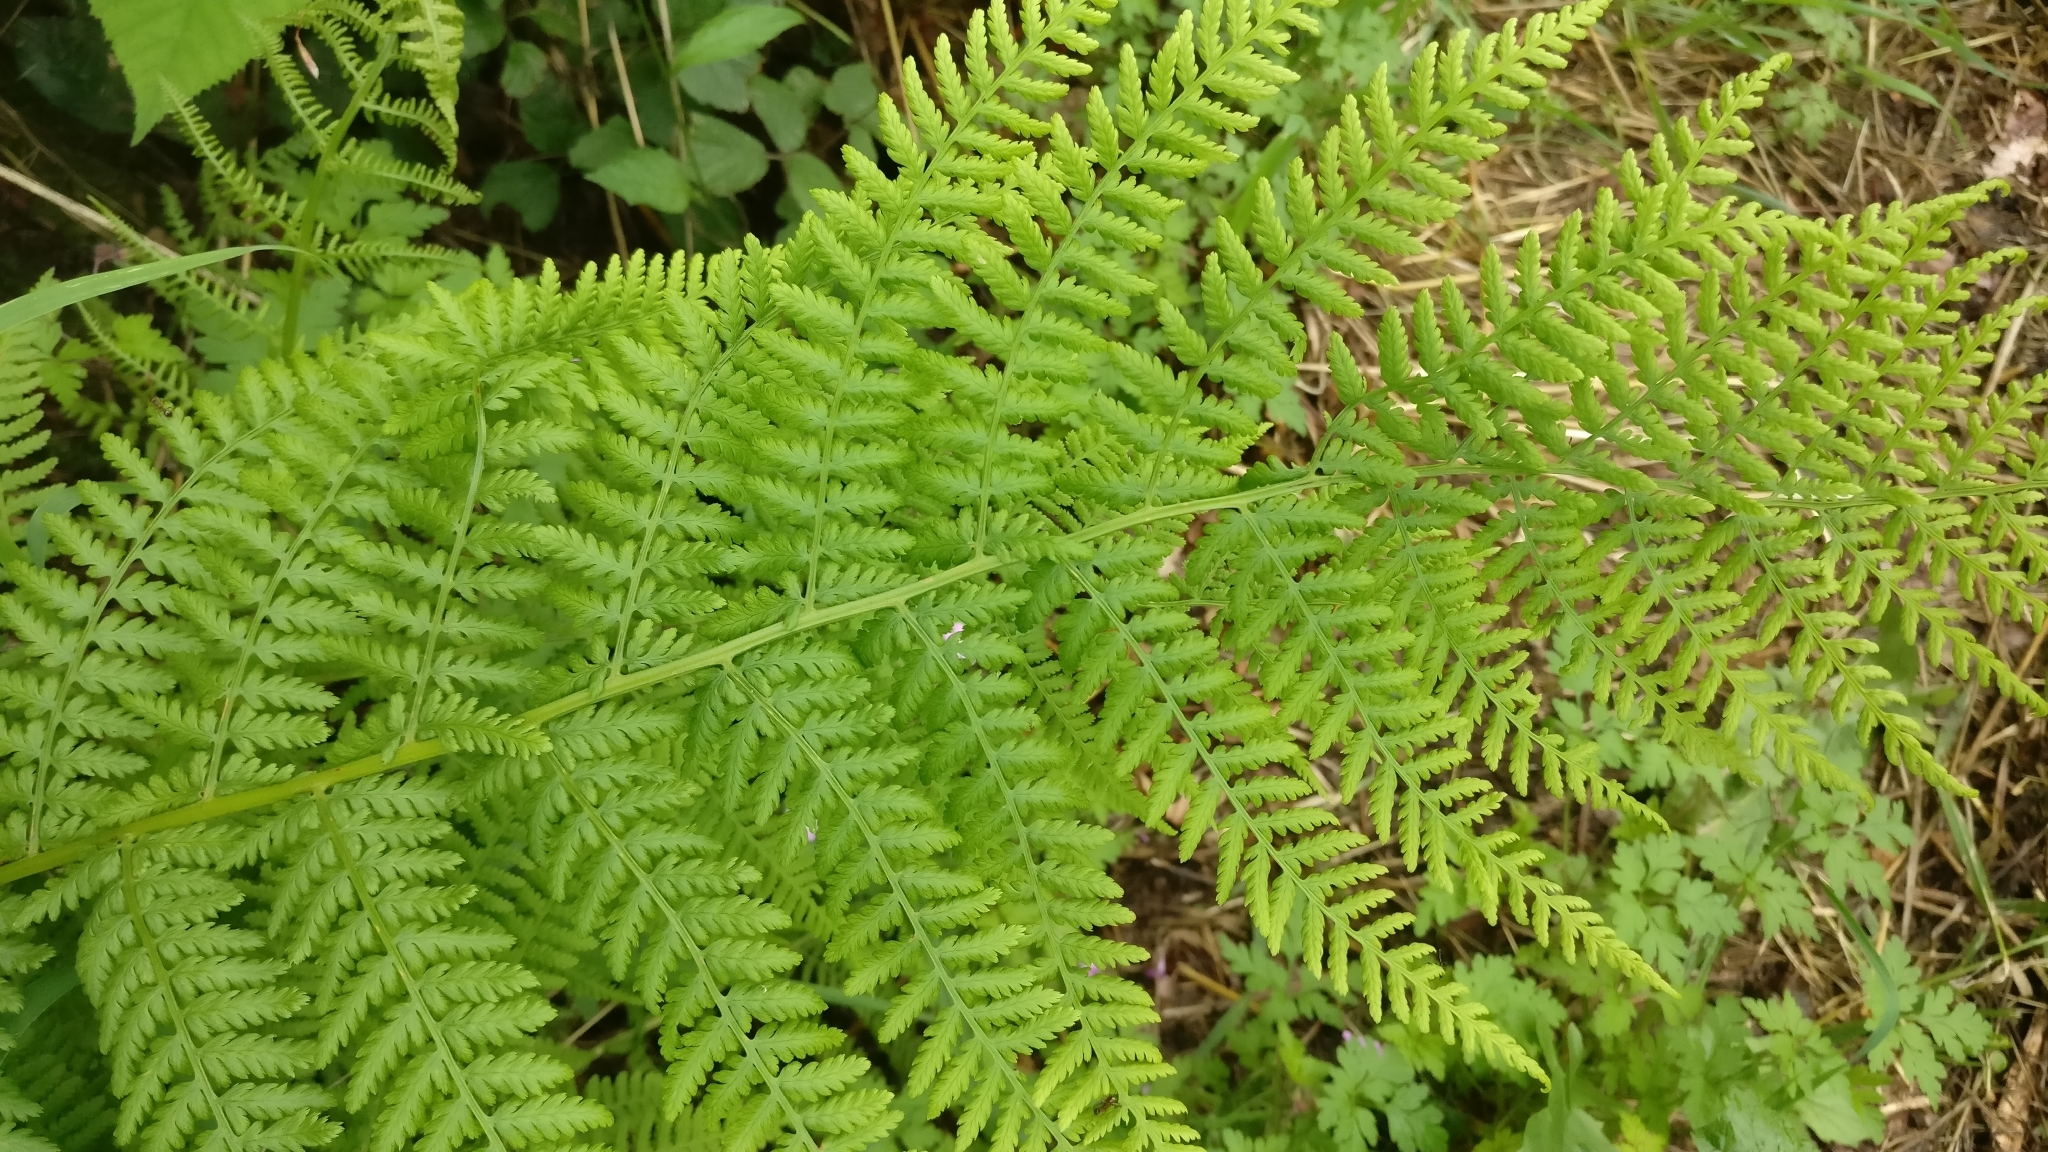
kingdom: Plantae
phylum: Tracheophyta
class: Polypodiopsida
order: Polypodiales
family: Athyriaceae
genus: Athyrium
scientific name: Athyrium filix-femina
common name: Lady fern
